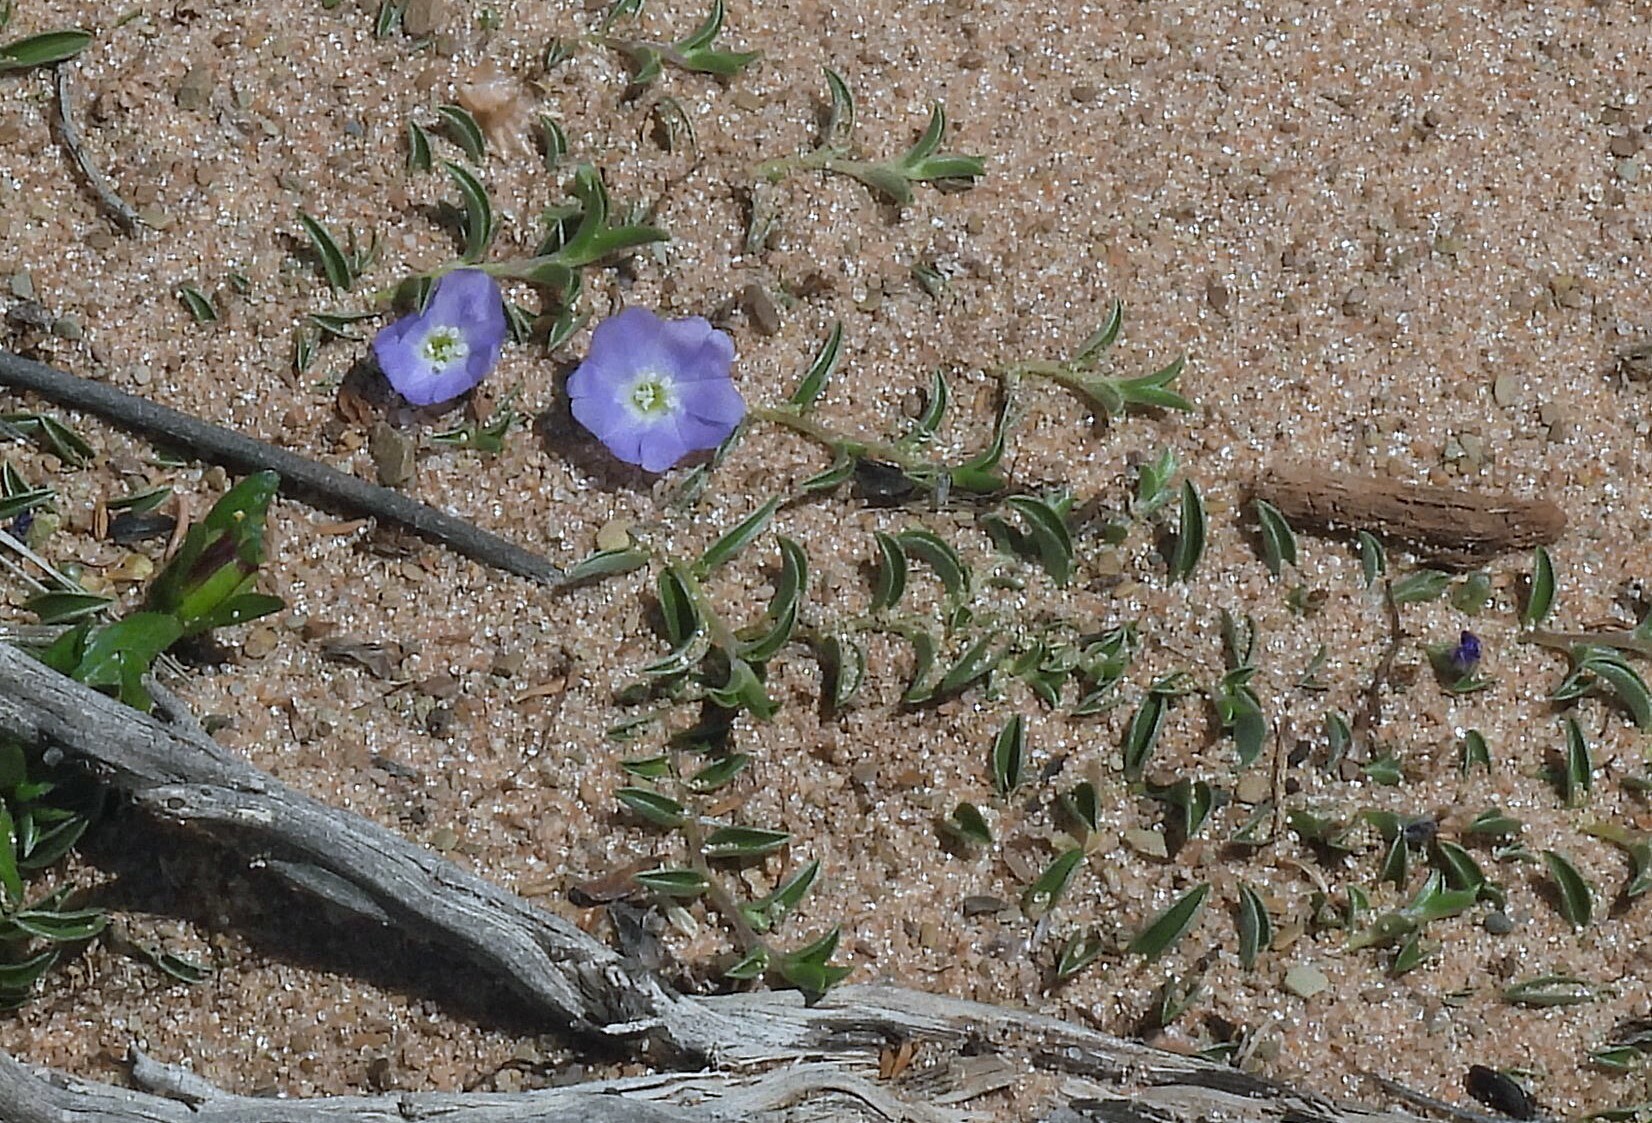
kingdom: Plantae
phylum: Tracheophyta
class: Magnoliopsida
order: Solanales
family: Convolvulaceae
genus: Evolvulus
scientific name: Evolvulus sericeus
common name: Blue dots
